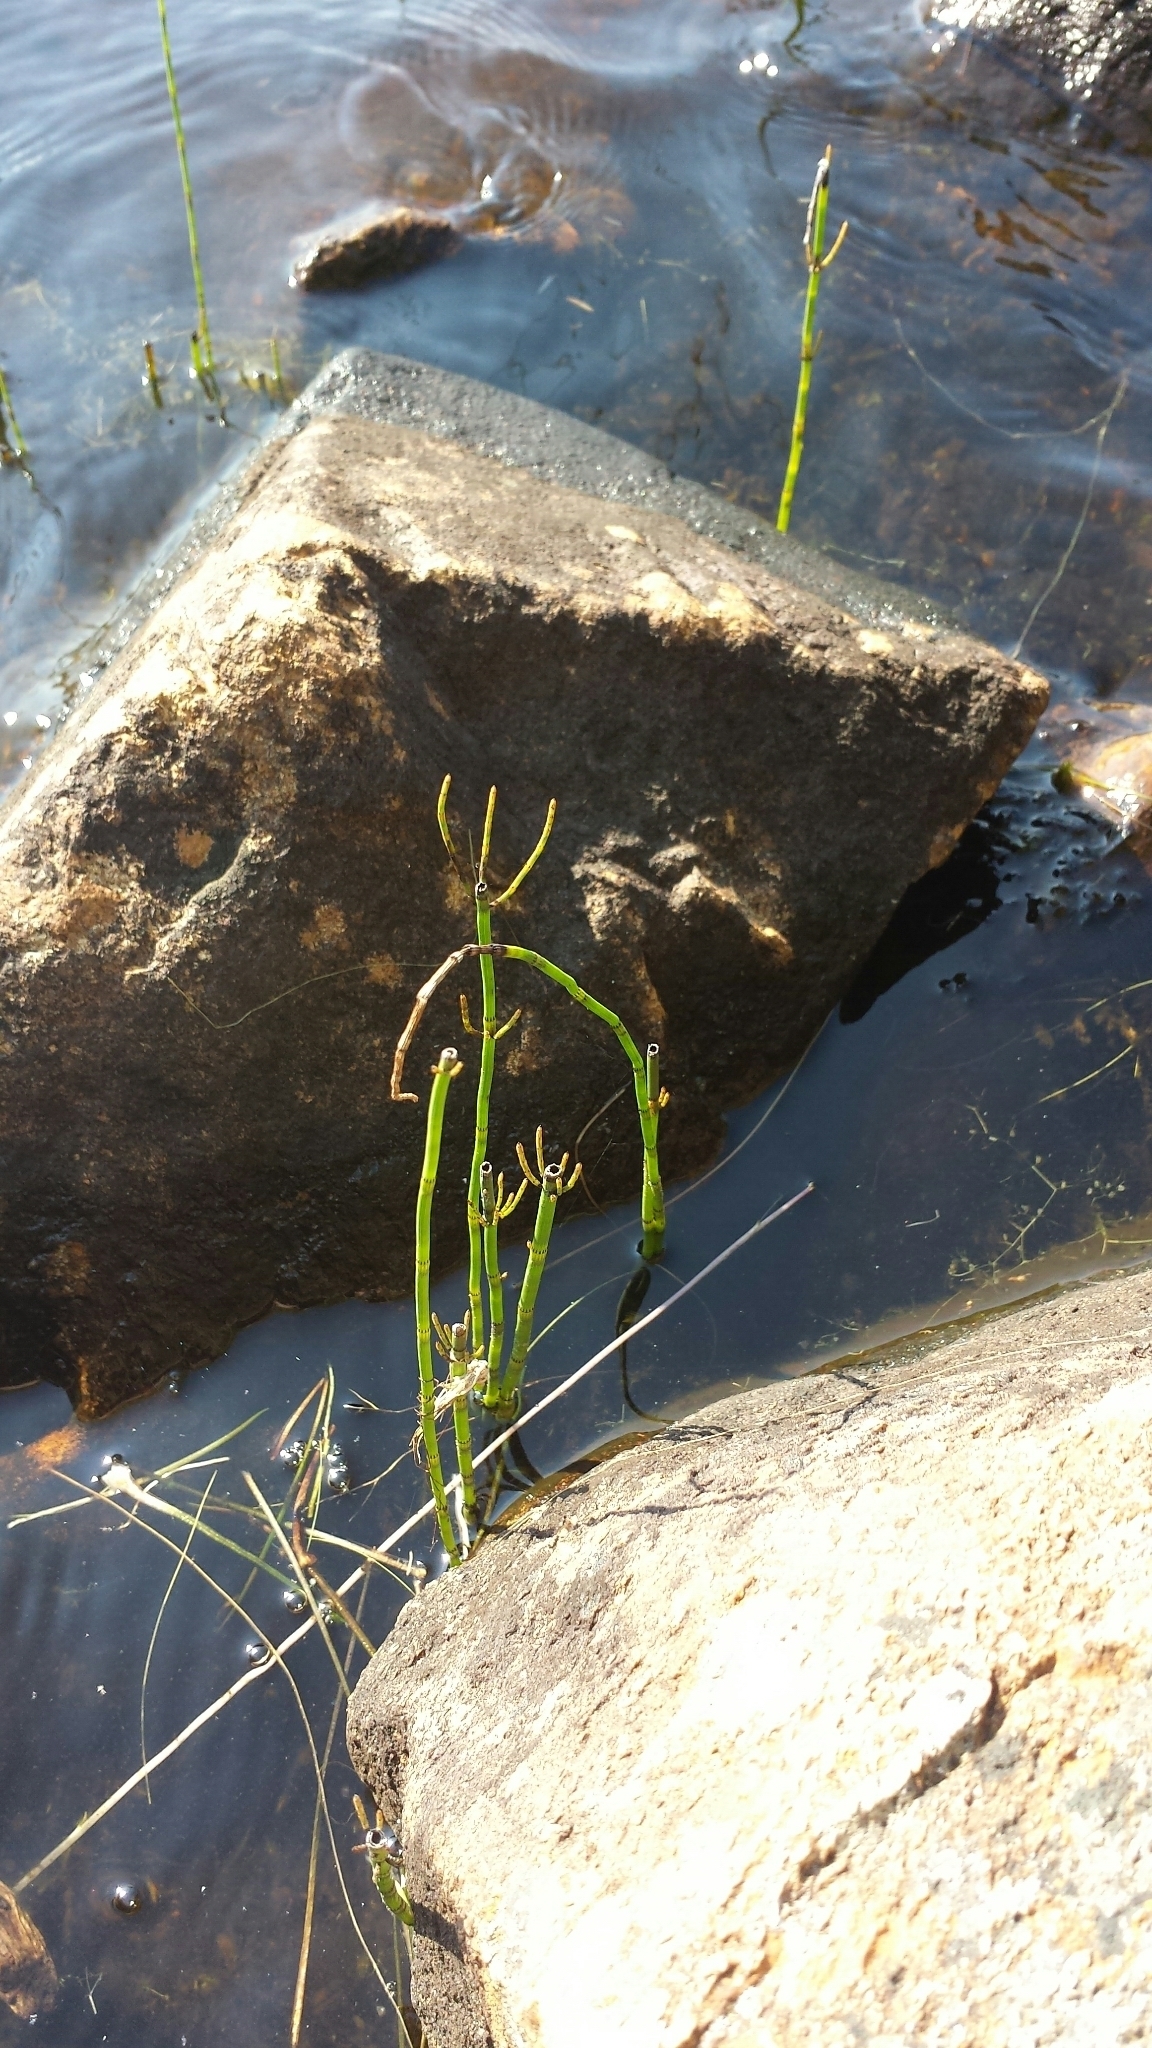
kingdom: Plantae
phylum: Tracheophyta
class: Polypodiopsida
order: Equisetales
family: Equisetaceae
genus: Equisetum
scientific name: Equisetum fluviatile
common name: Water horsetail
